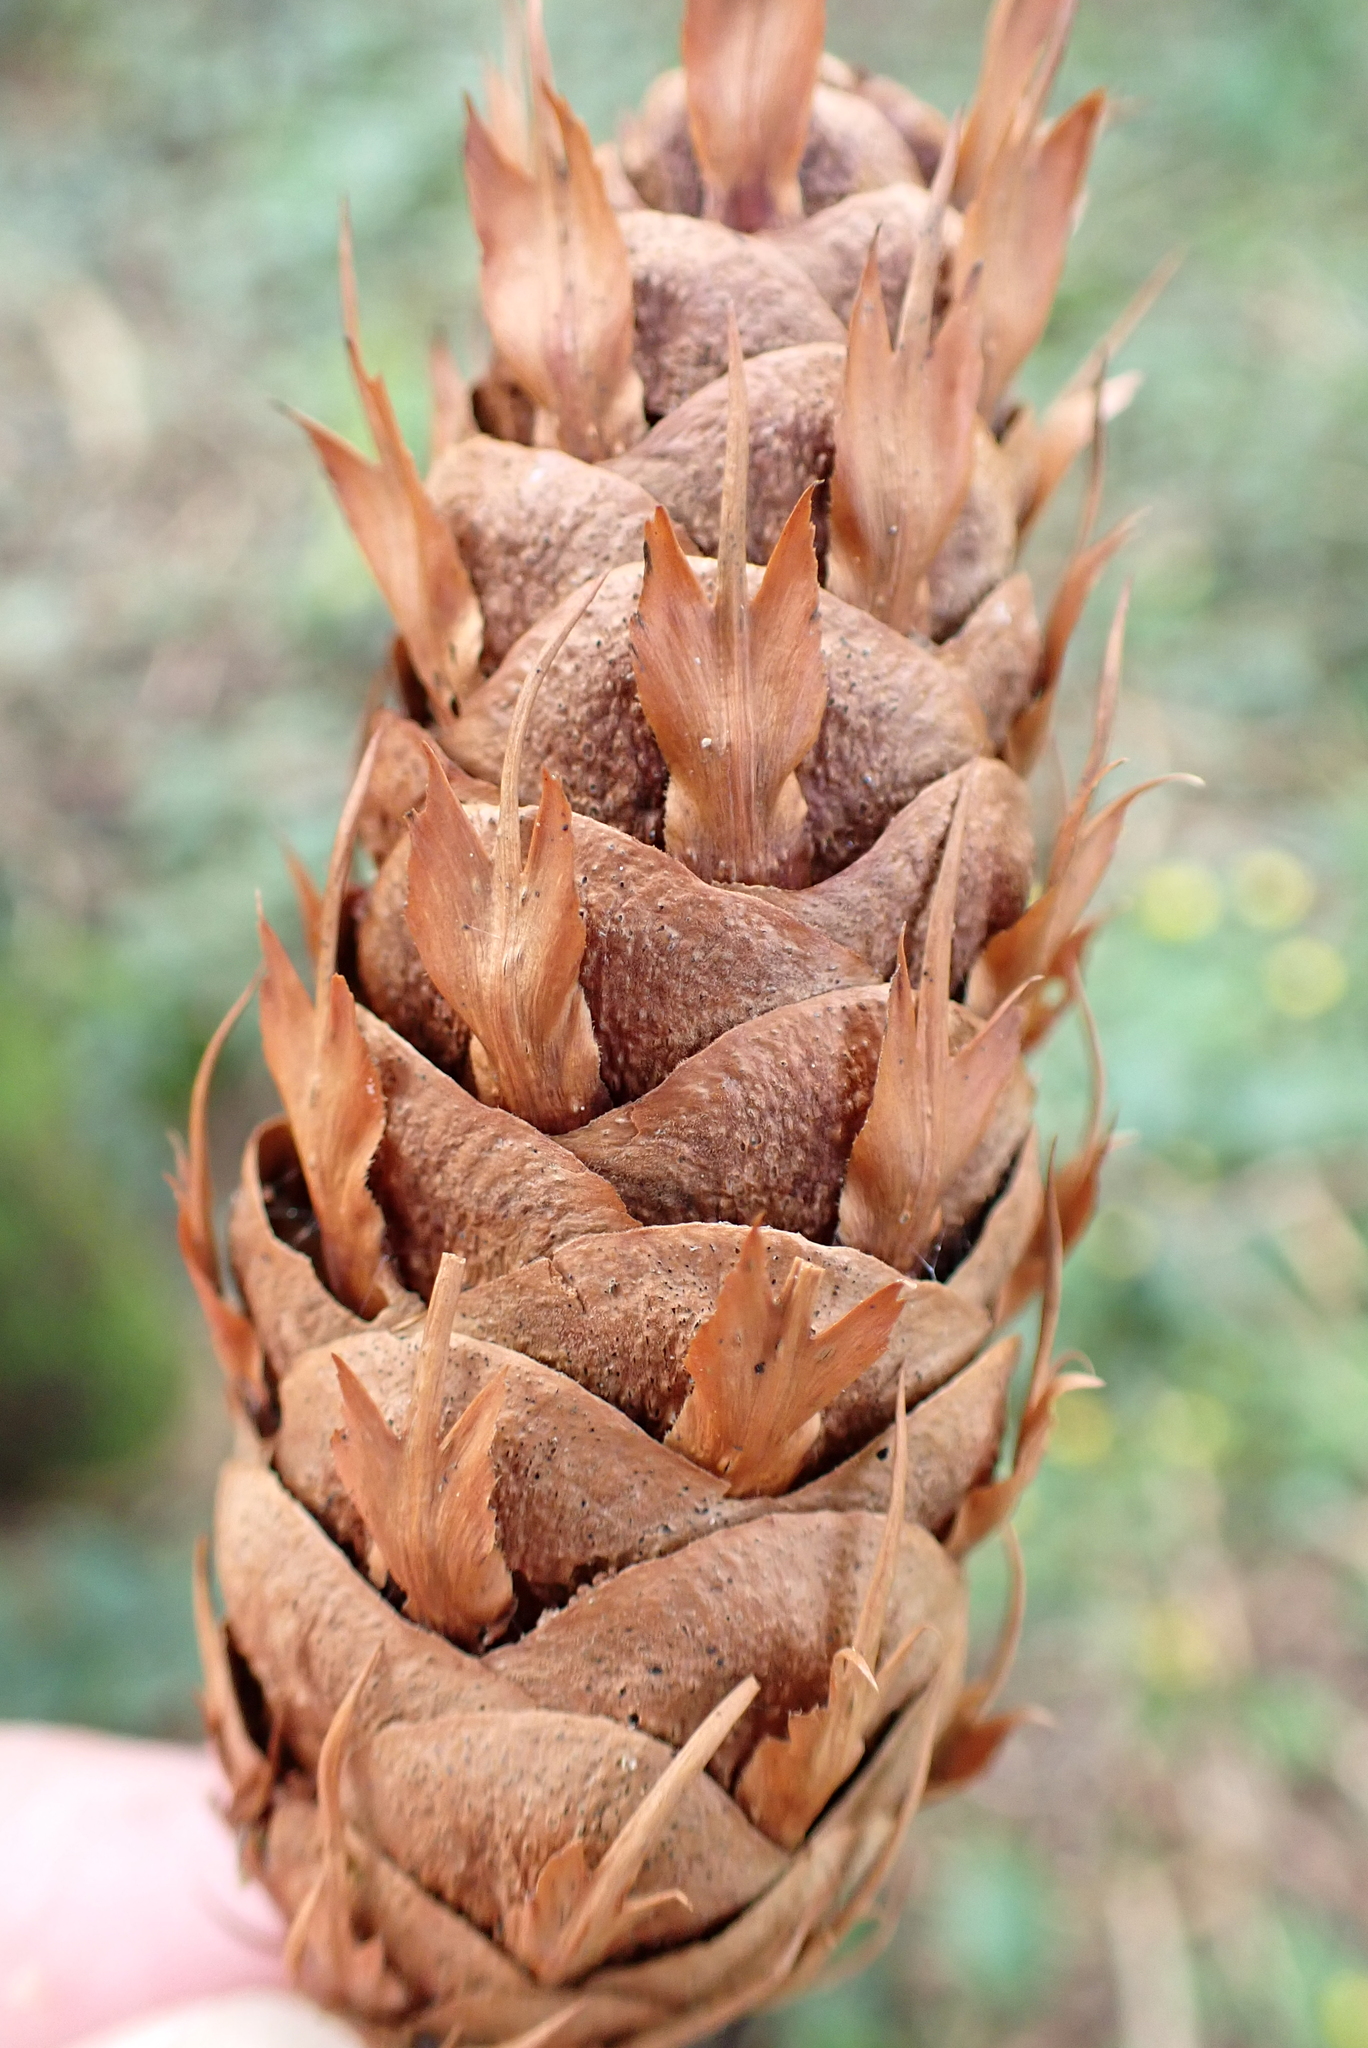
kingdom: Plantae
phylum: Tracheophyta
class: Pinopsida
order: Pinales
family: Pinaceae
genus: Pseudotsuga
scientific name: Pseudotsuga menziesii
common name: Douglas fir
